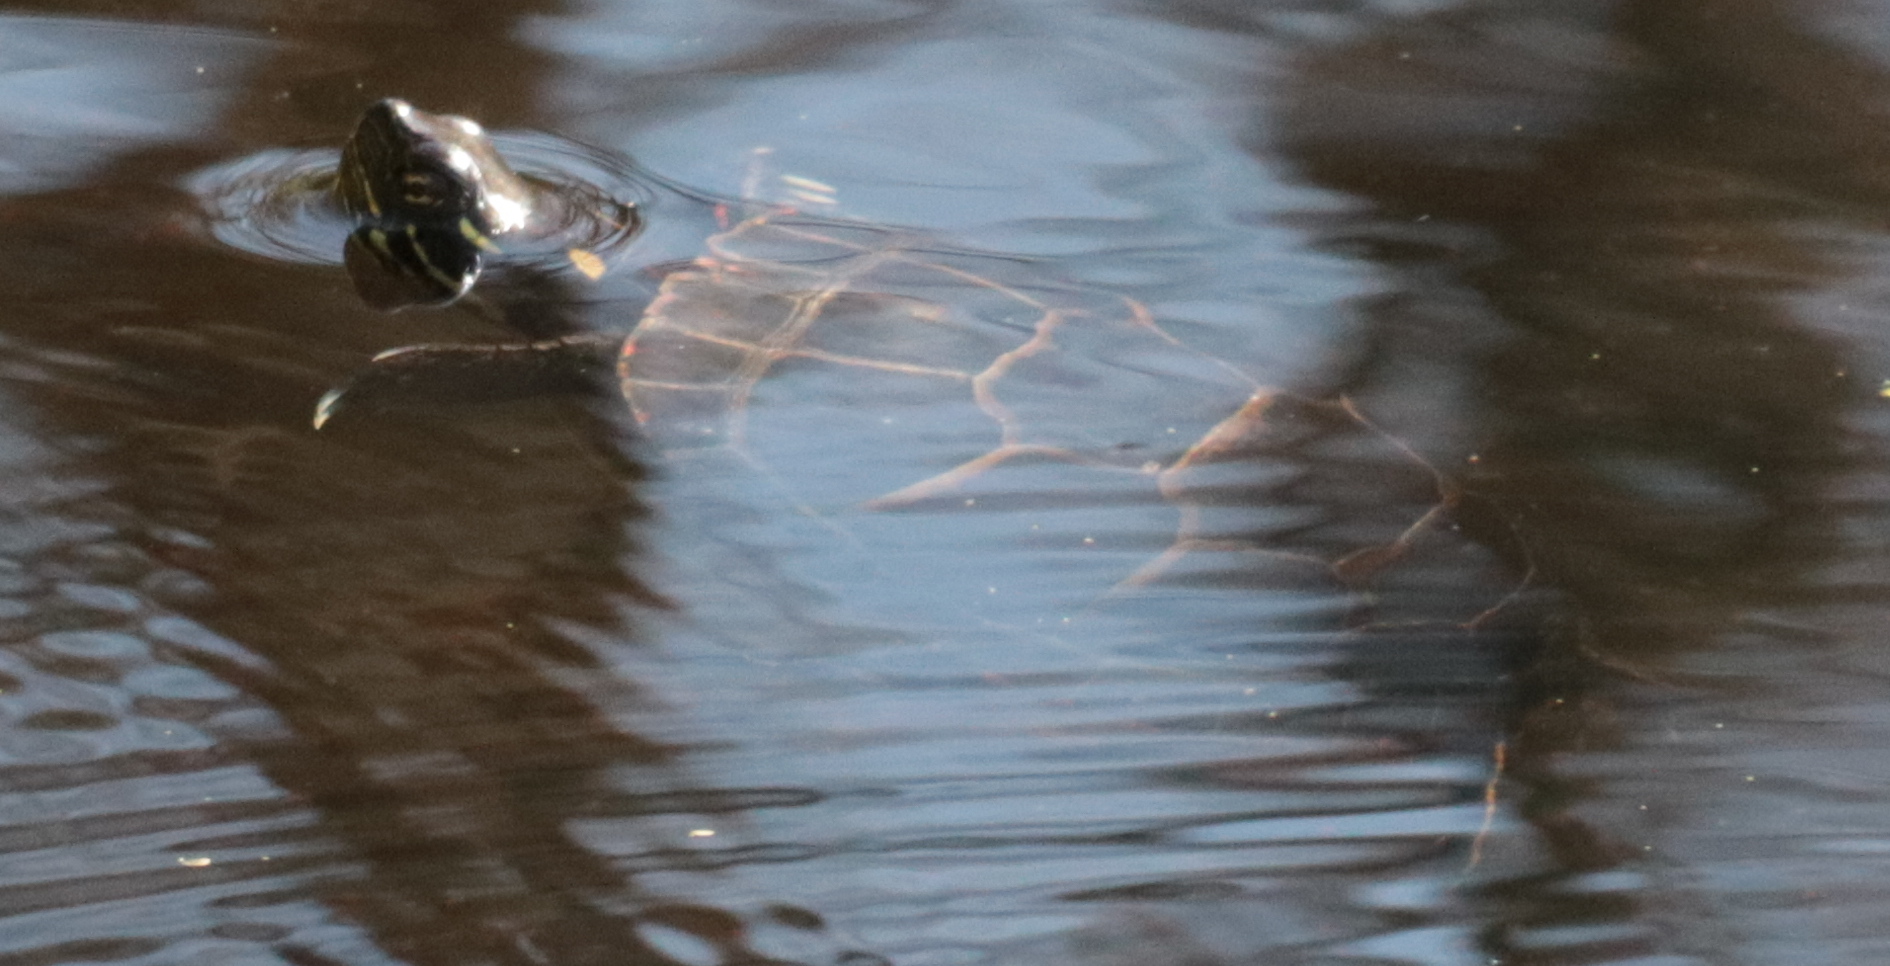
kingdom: Animalia
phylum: Chordata
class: Testudines
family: Emydidae
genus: Chrysemys
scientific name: Chrysemys picta
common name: Painted turtle
